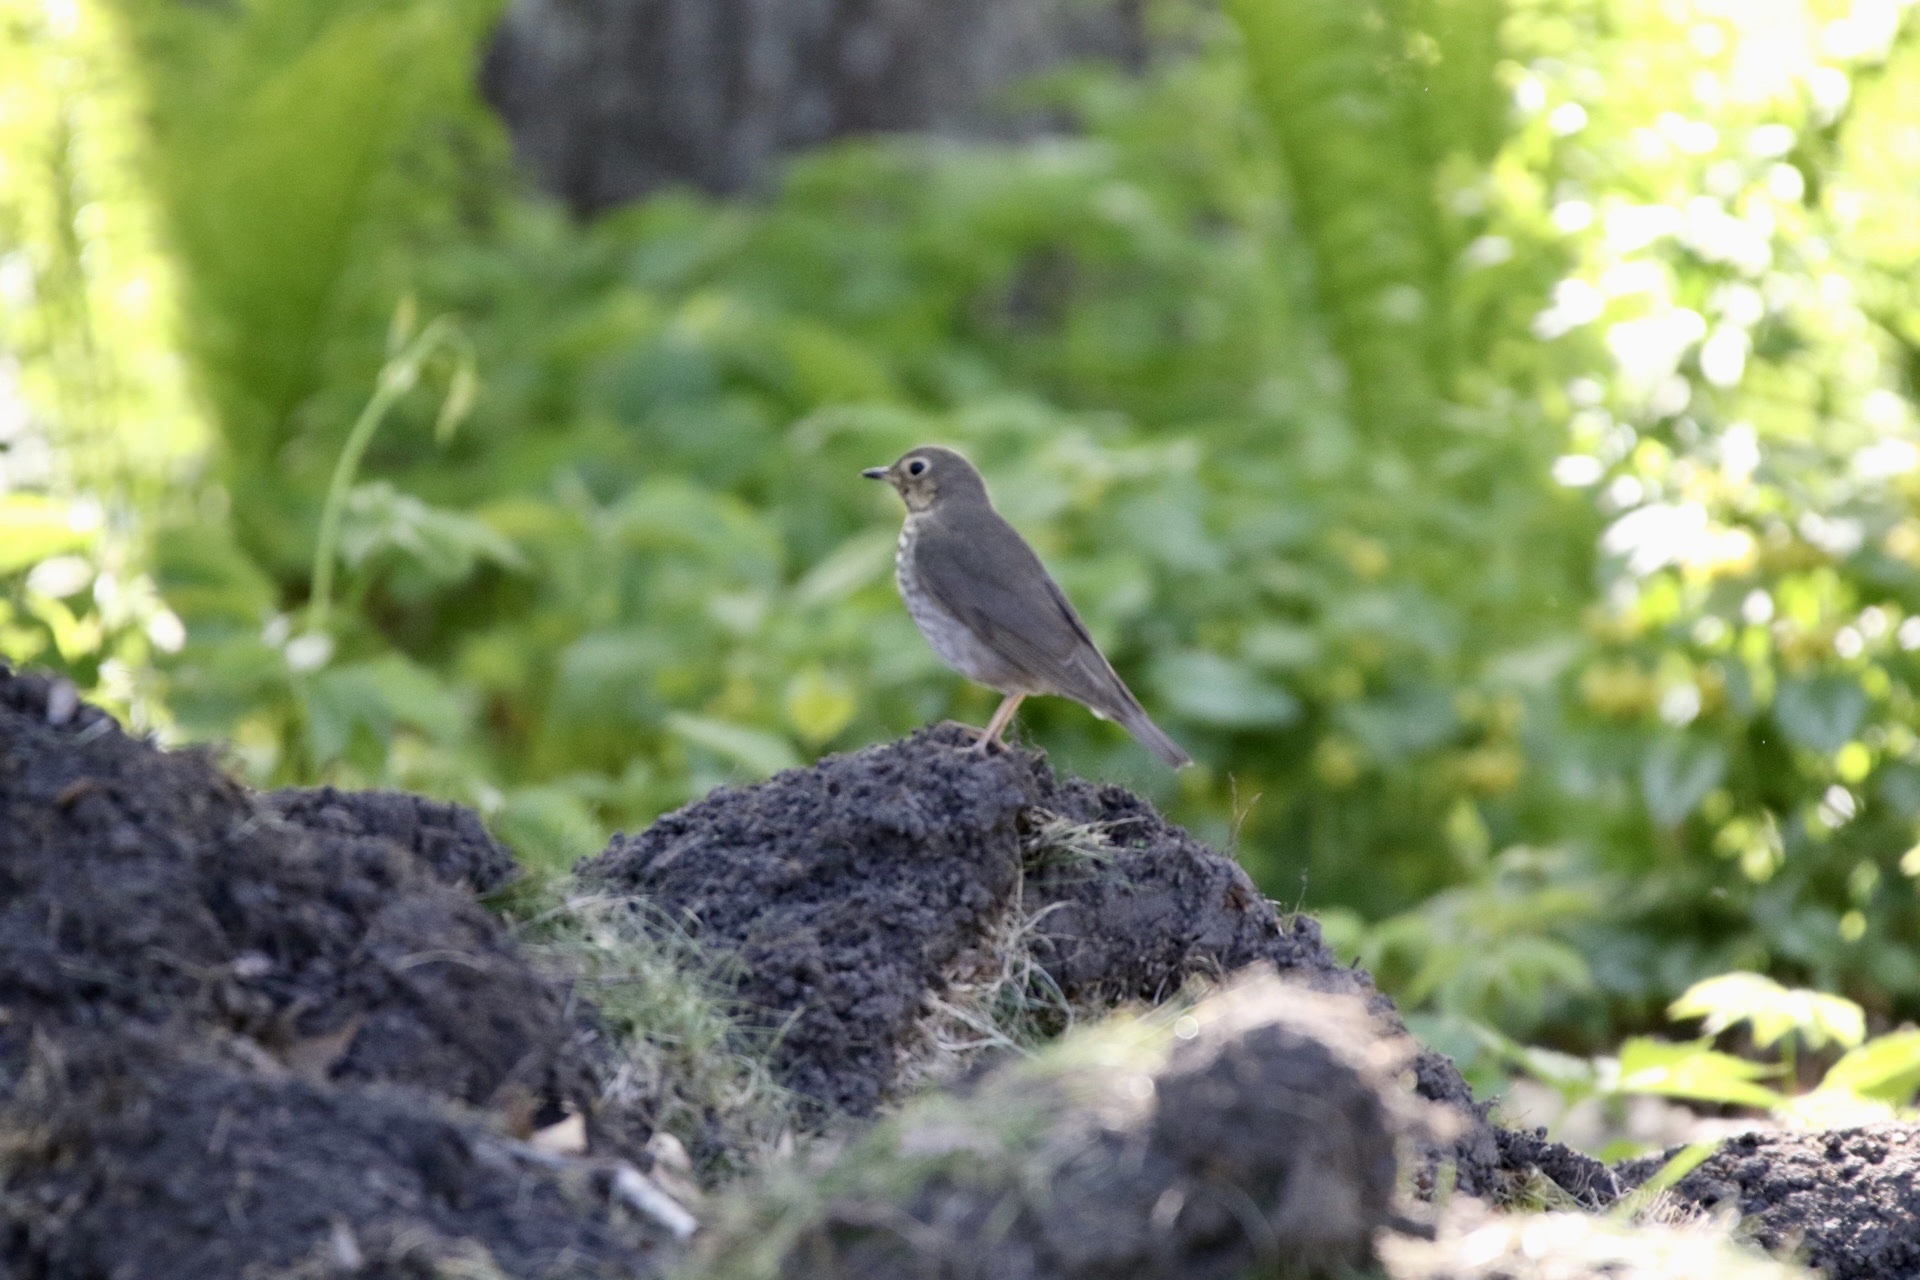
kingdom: Animalia
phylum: Chordata
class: Aves
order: Passeriformes
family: Turdidae
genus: Catharus
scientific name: Catharus ustulatus
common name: Swainson's thrush
